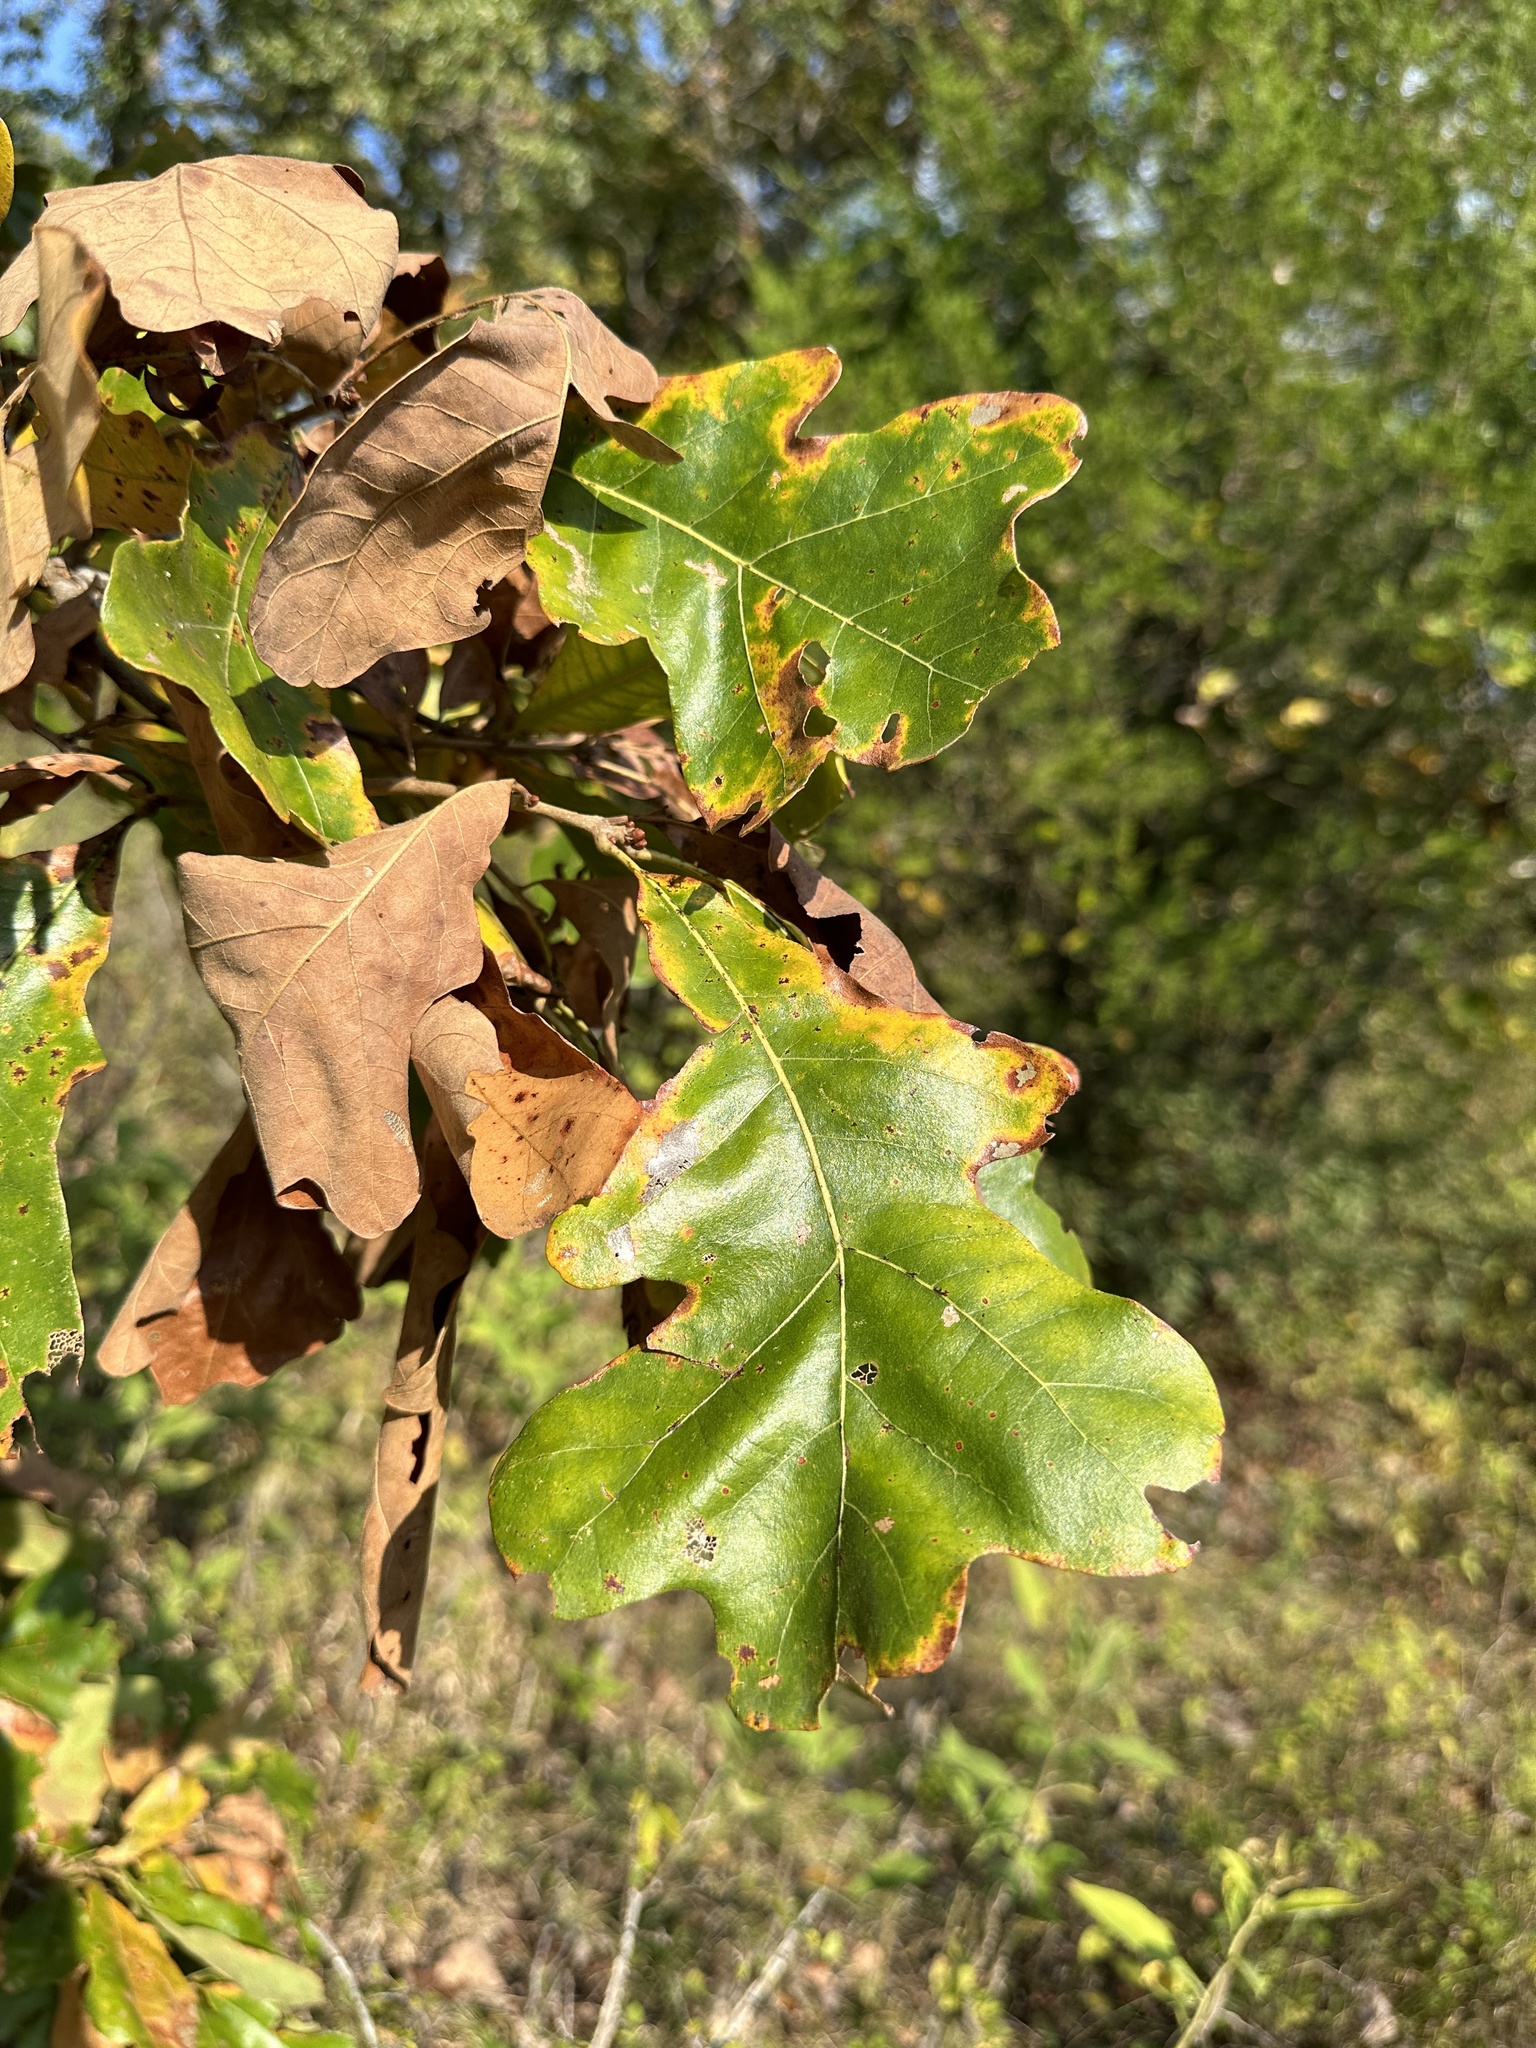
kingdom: Plantae
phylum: Tracheophyta
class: Magnoliopsida
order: Fagales
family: Fagaceae
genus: Quercus
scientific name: Quercus stellata
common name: Post oak
